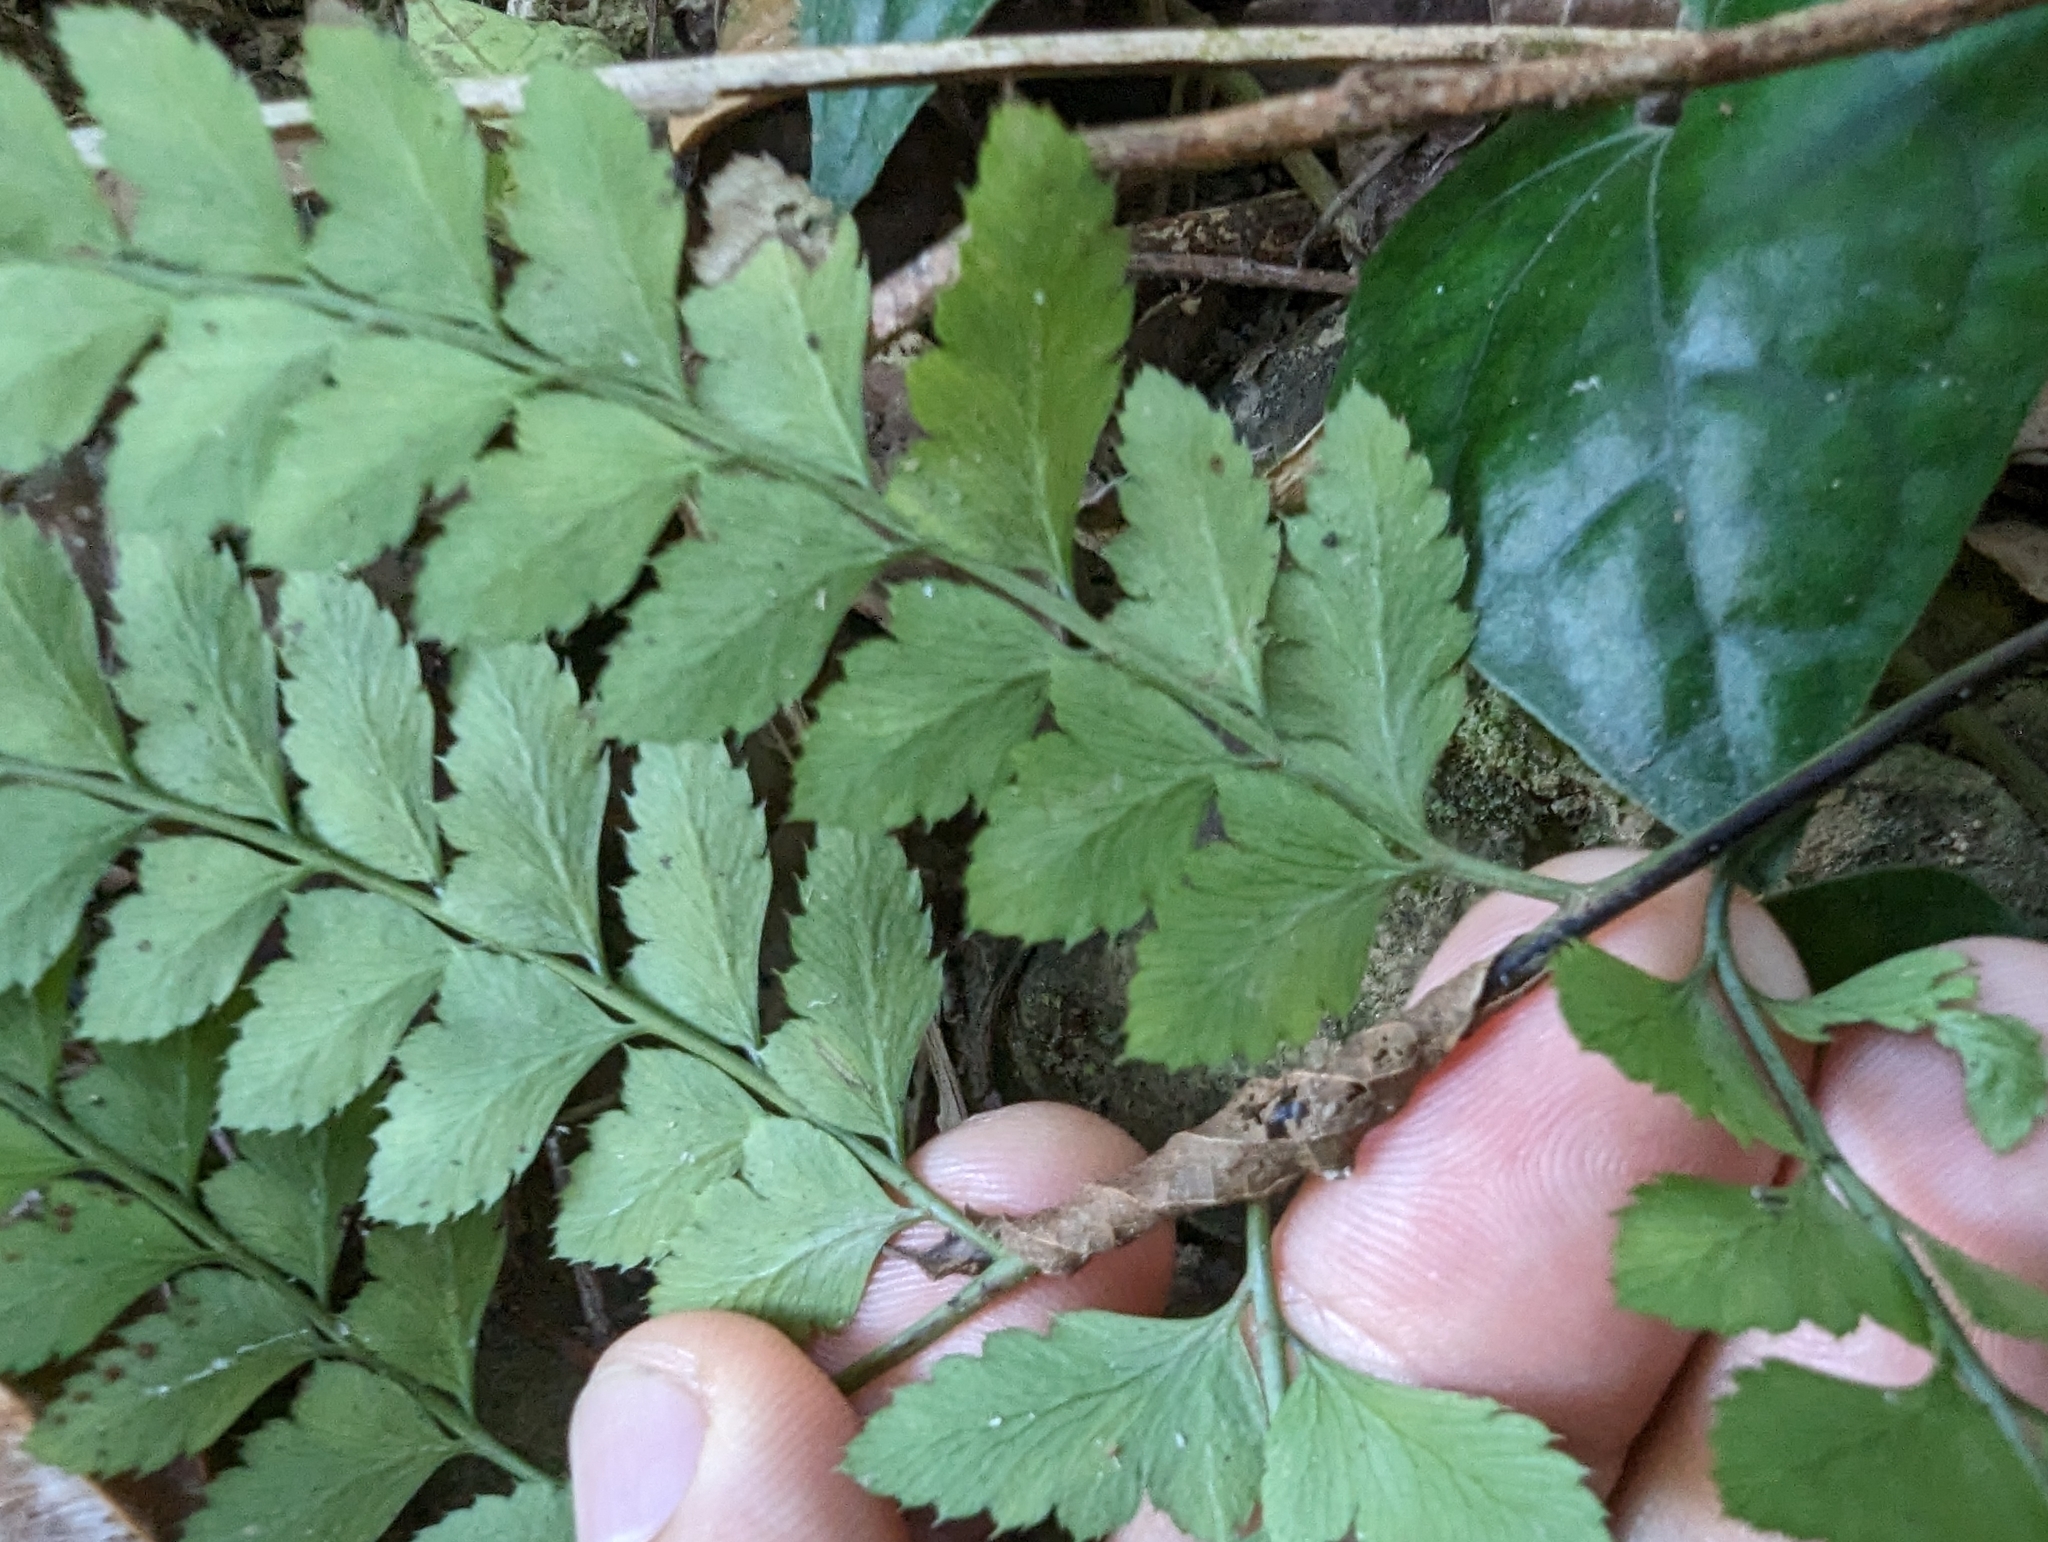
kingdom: Plantae
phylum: Tracheophyta
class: Polypodiopsida
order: Polypodiales
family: Dryopteridaceae
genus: Arachniodes
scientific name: Arachniodes rhomboidea
